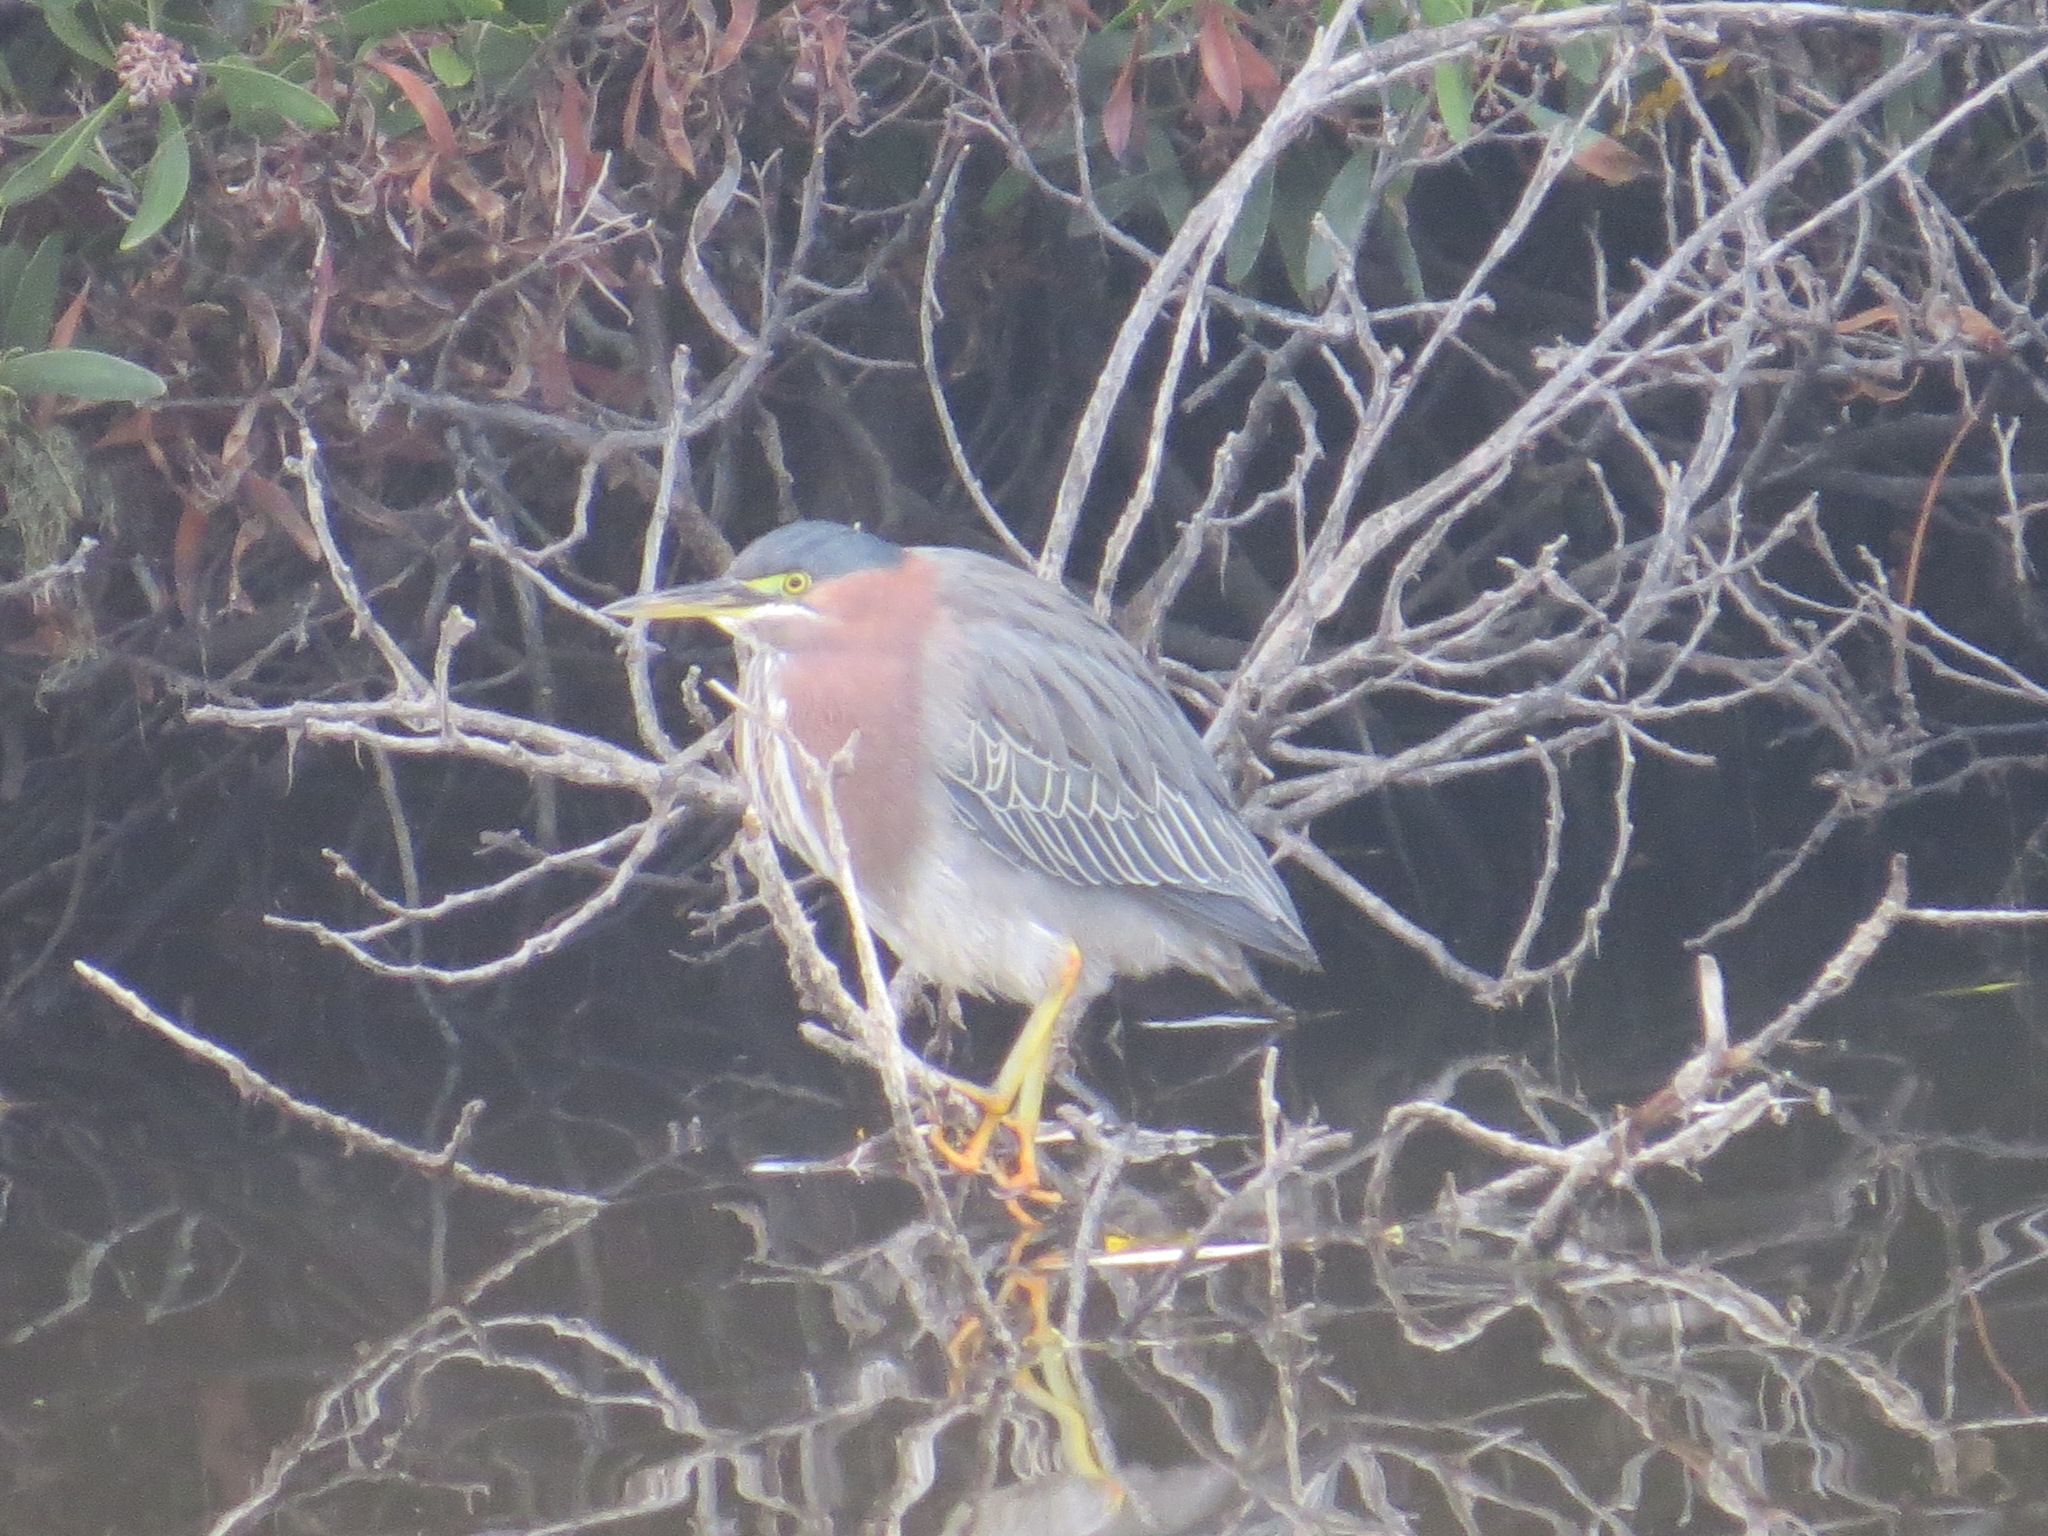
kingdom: Animalia
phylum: Chordata
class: Aves
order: Pelecaniformes
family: Ardeidae
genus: Butorides
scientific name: Butorides virescens
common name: Green heron
